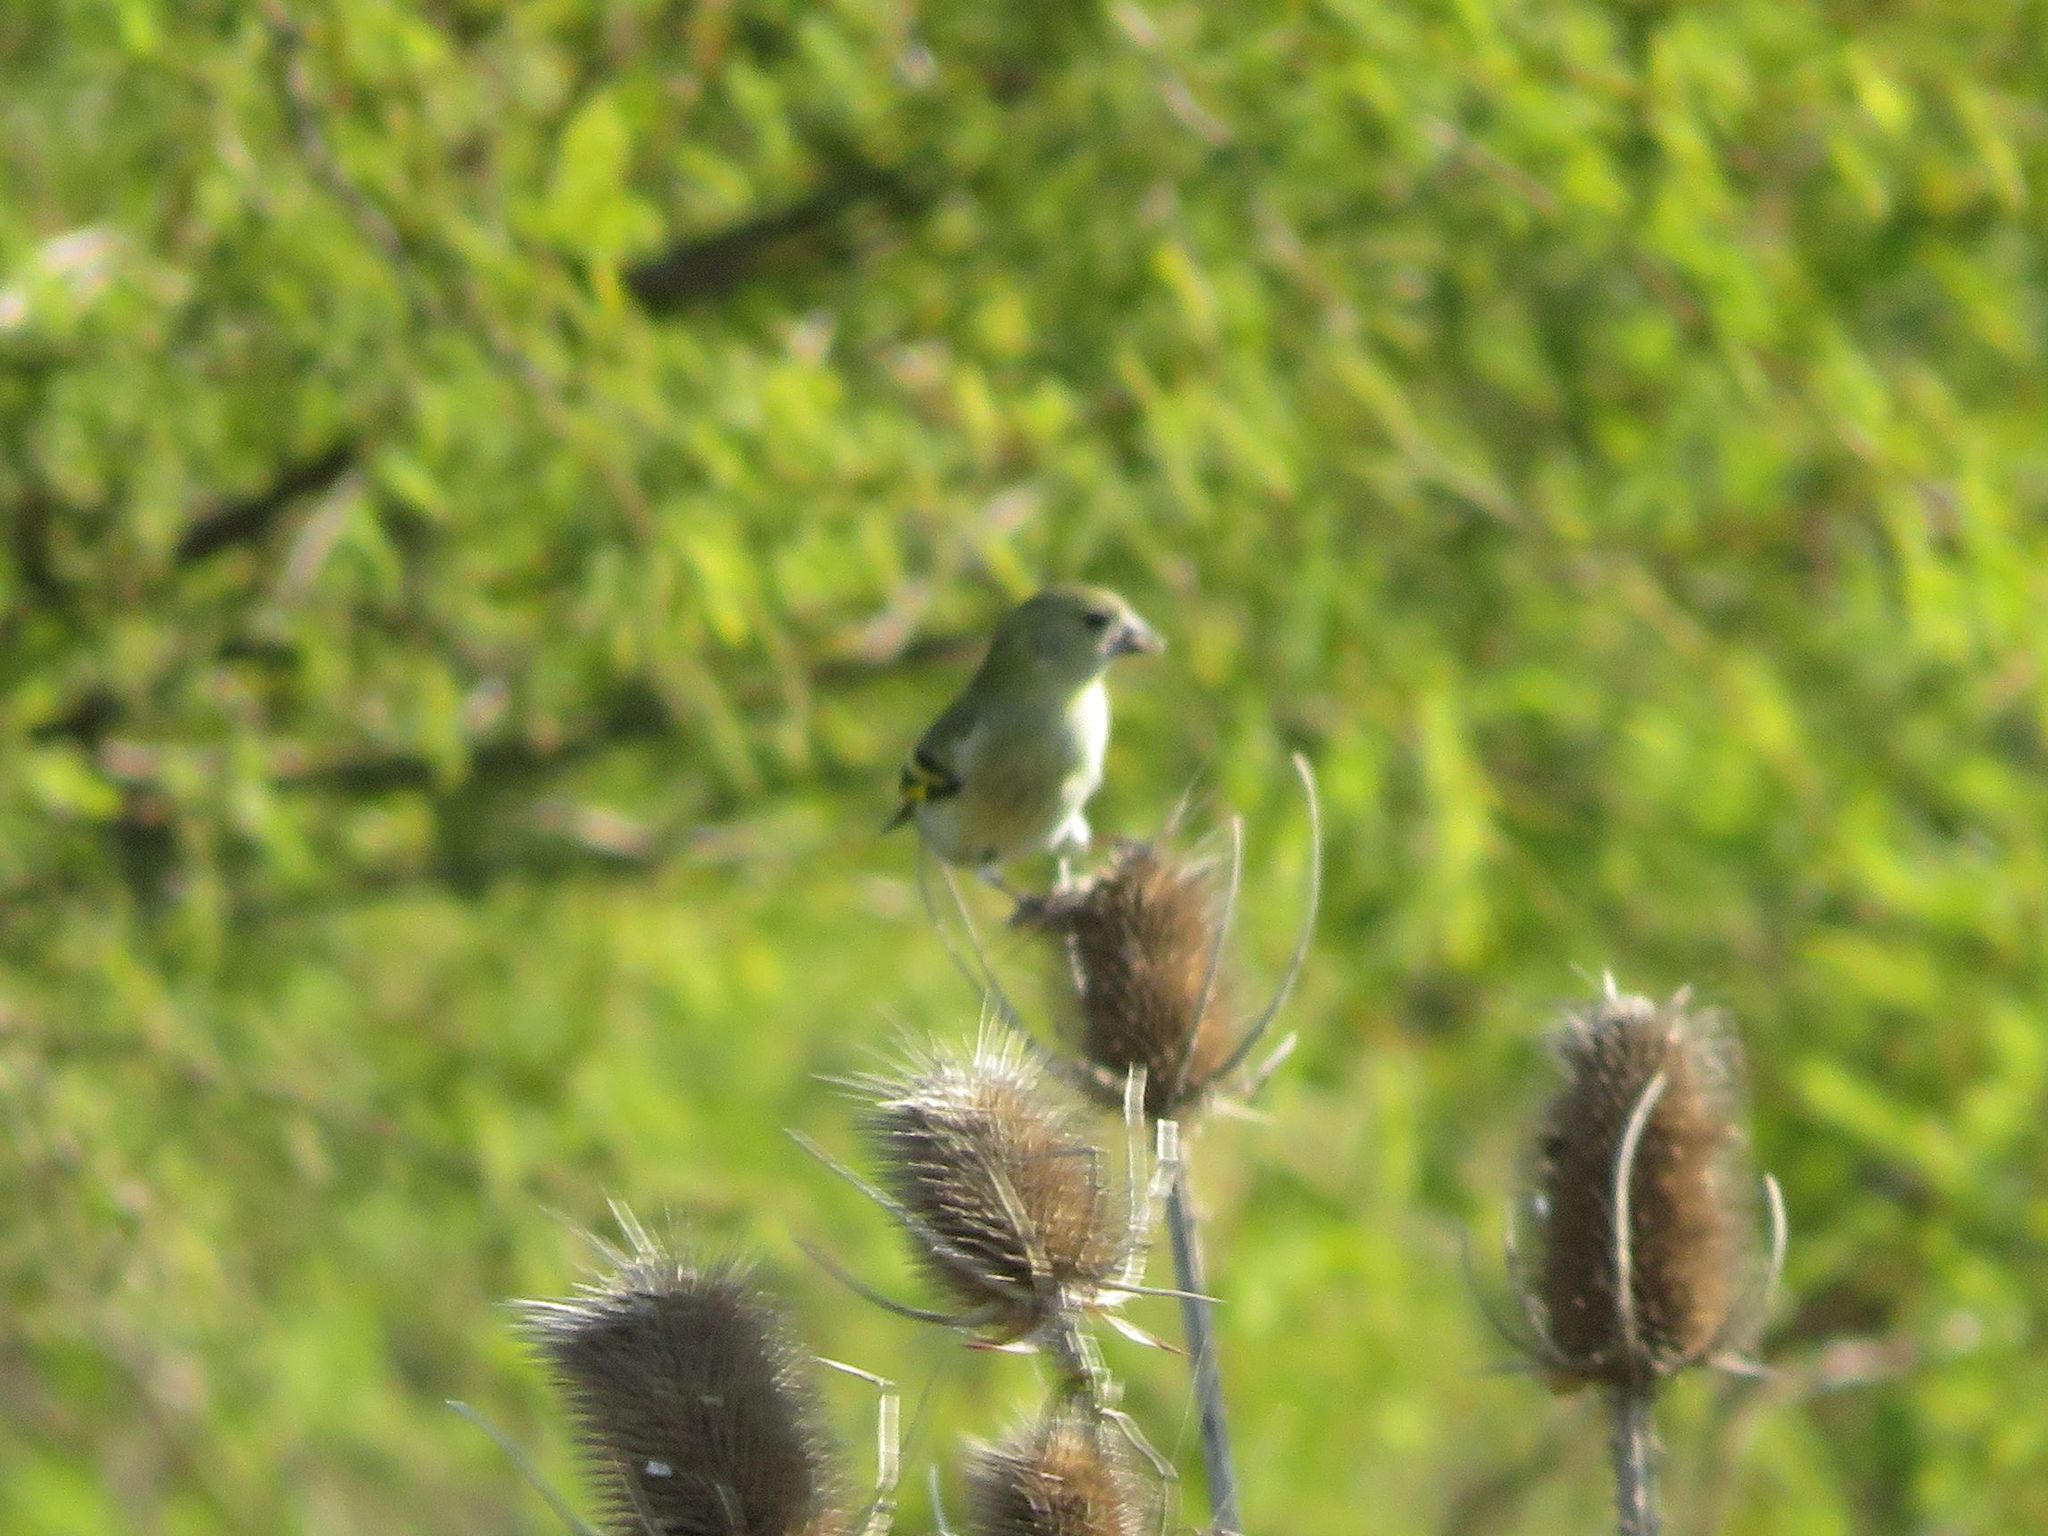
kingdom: Animalia
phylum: Chordata
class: Aves
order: Passeriformes
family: Fringillidae
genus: Spinus
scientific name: Spinus magellanicus
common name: Hooded siskin
